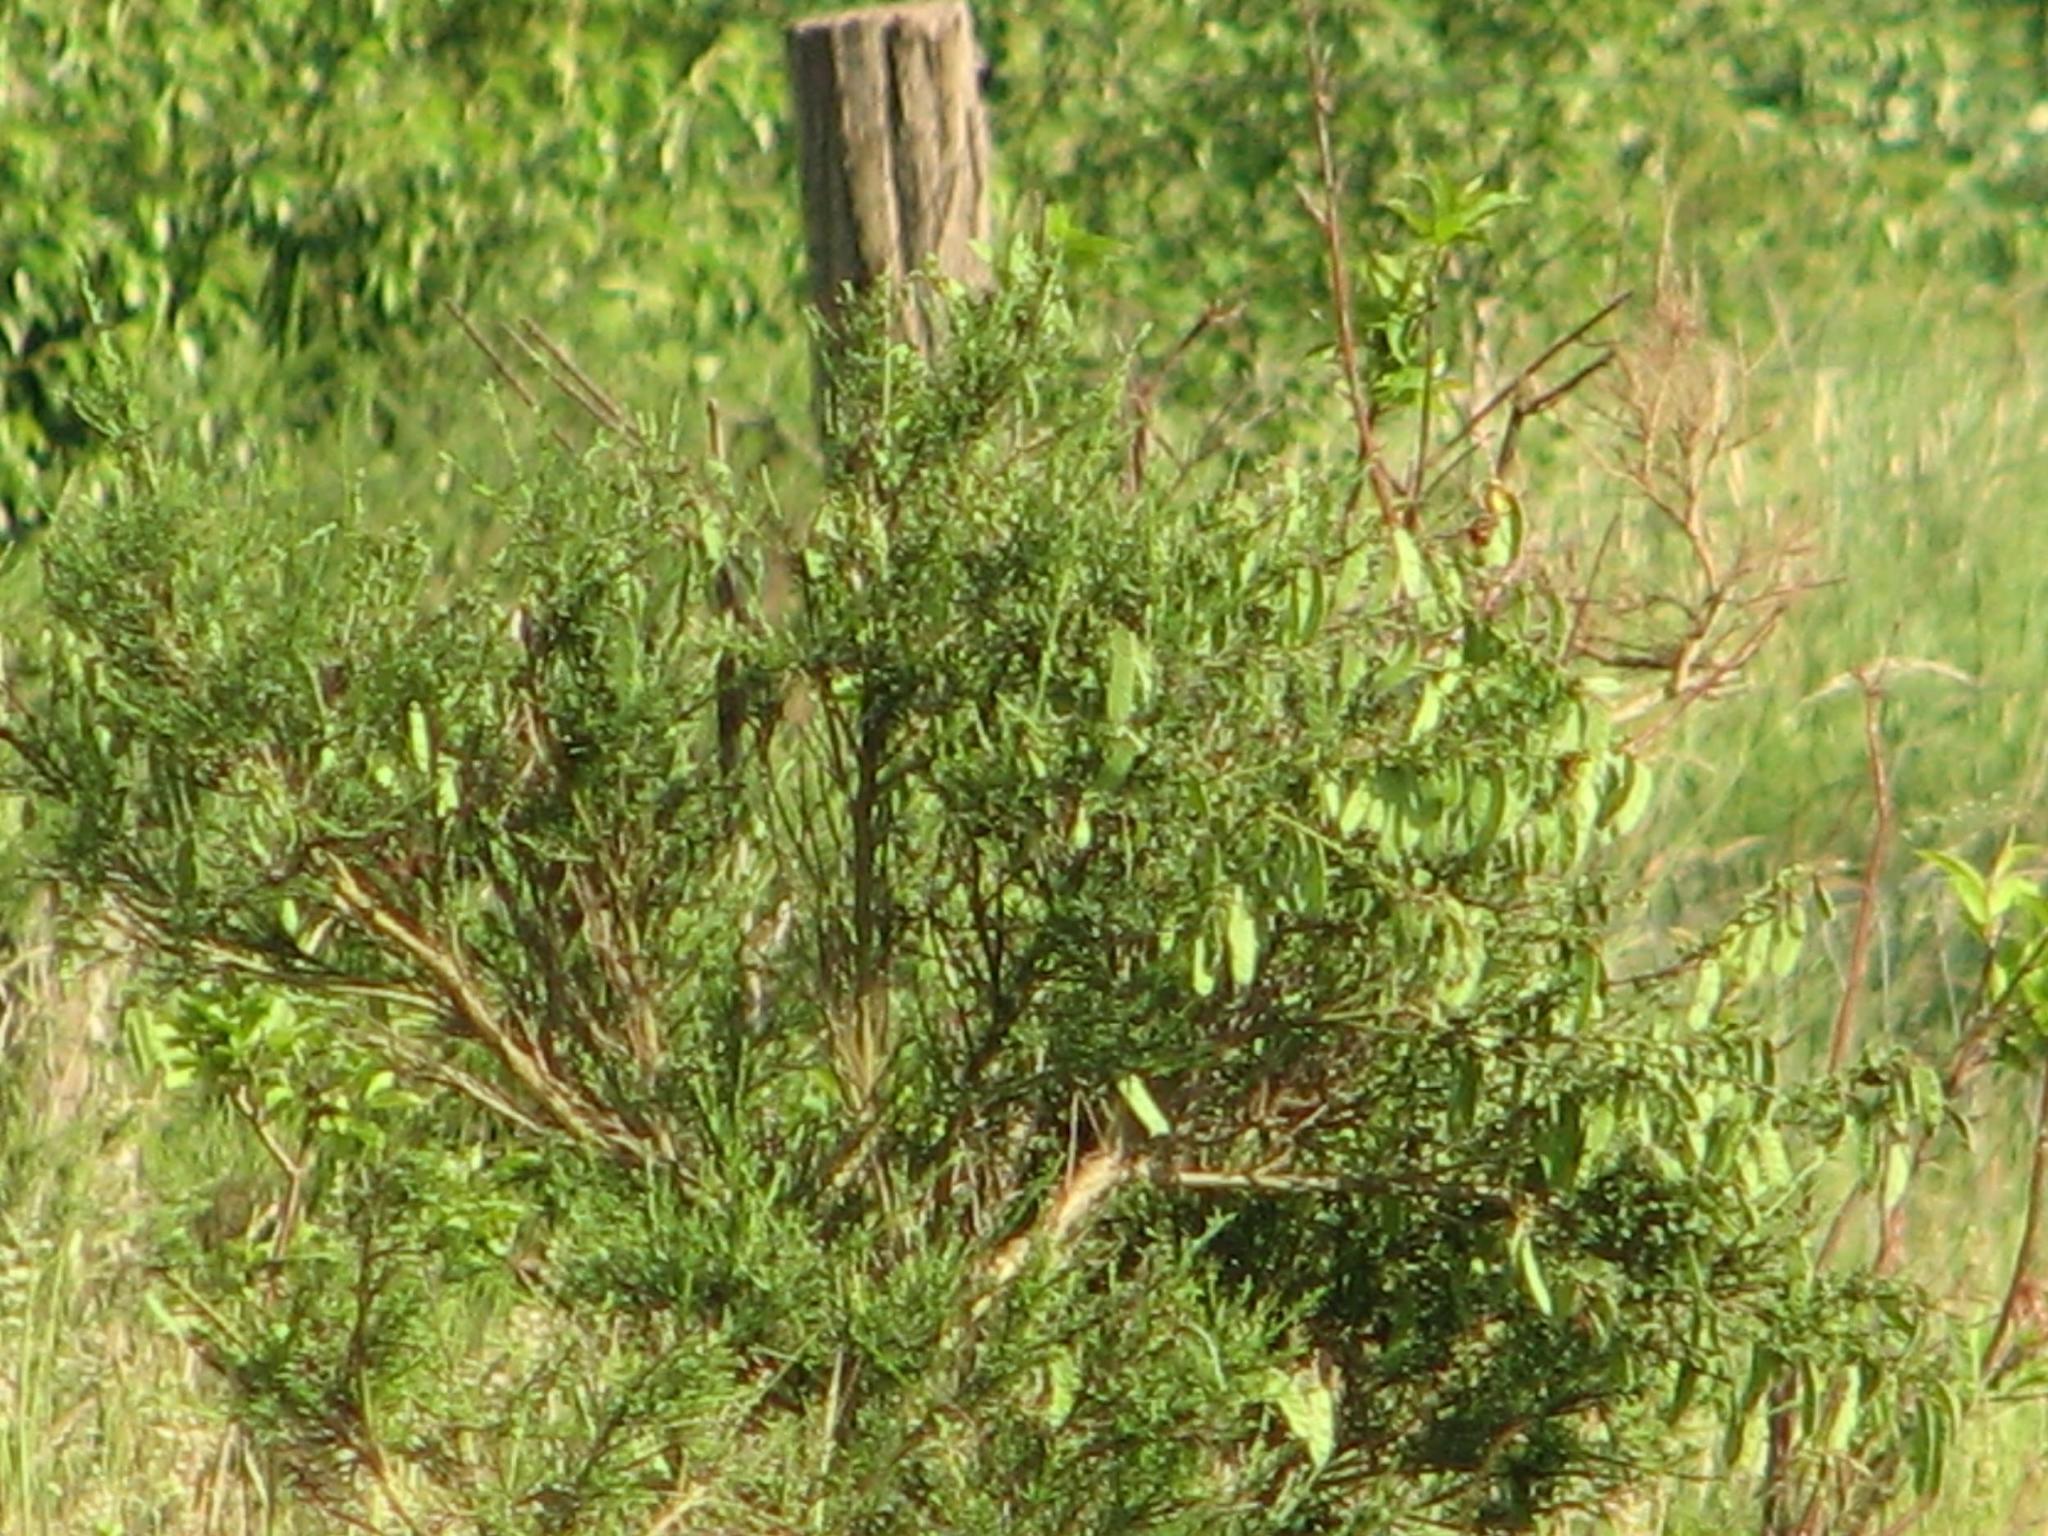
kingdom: Plantae
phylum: Tracheophyta
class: Magnoliopsida
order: Fabales
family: Fabaceae
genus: Cytisus
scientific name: Cytisus scoparius
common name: Scotch broom
